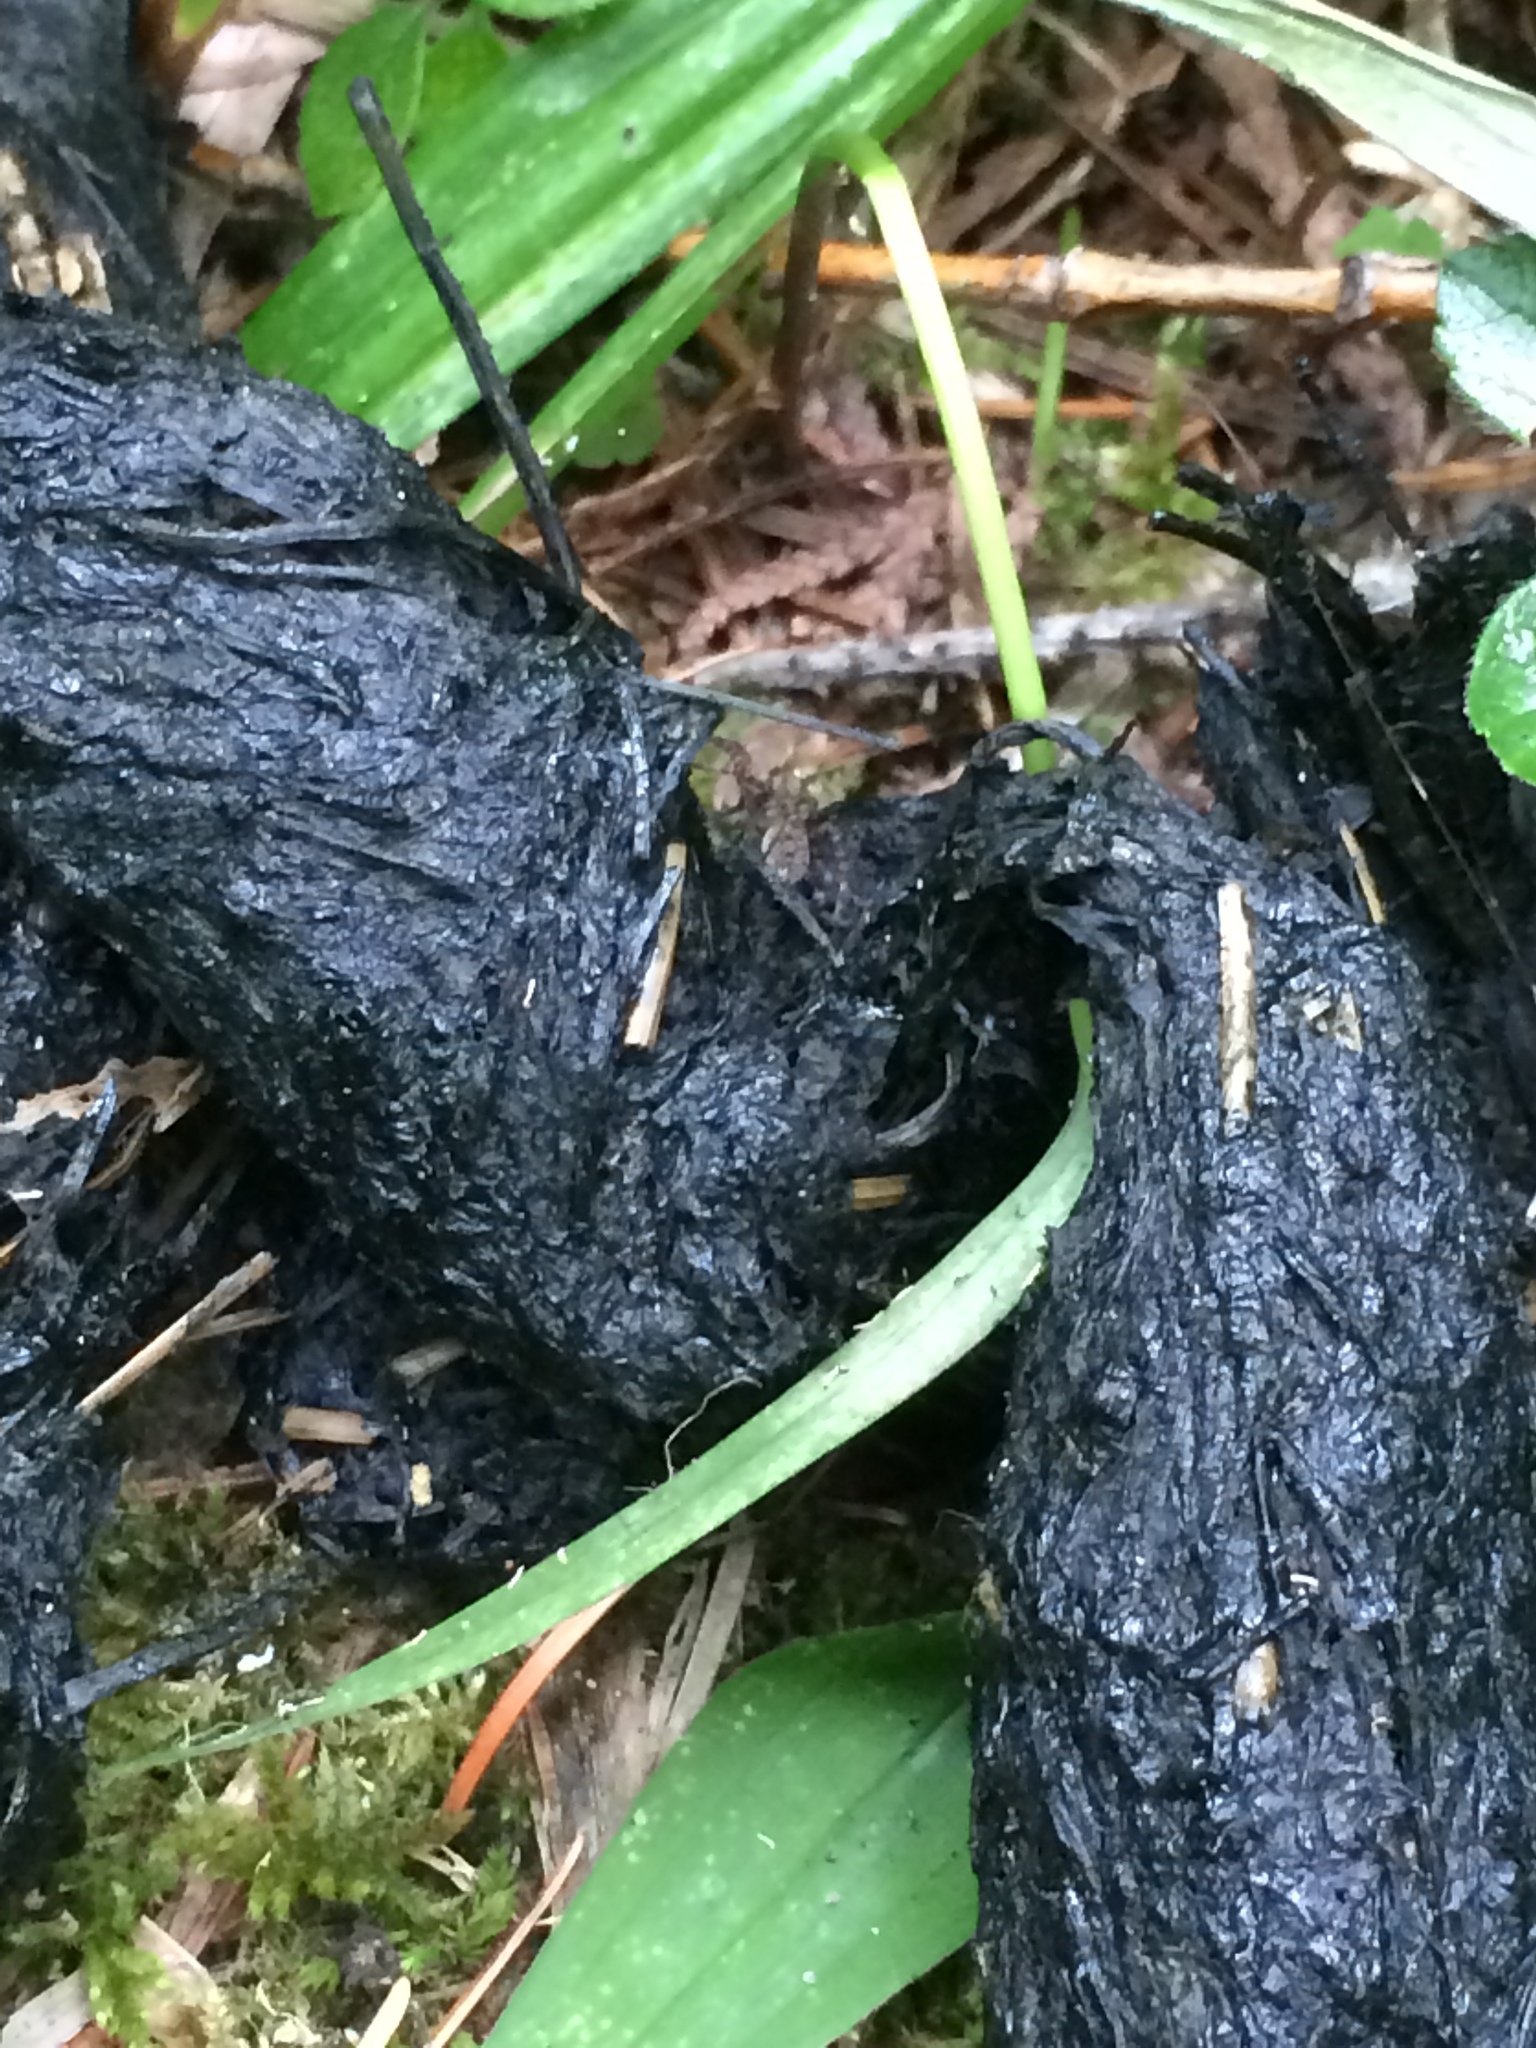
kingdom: Animalia
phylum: Chordata
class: Mammalia
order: Carnivora
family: Ursidae
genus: Ursus
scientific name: Ursus americanus
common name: American black bear
